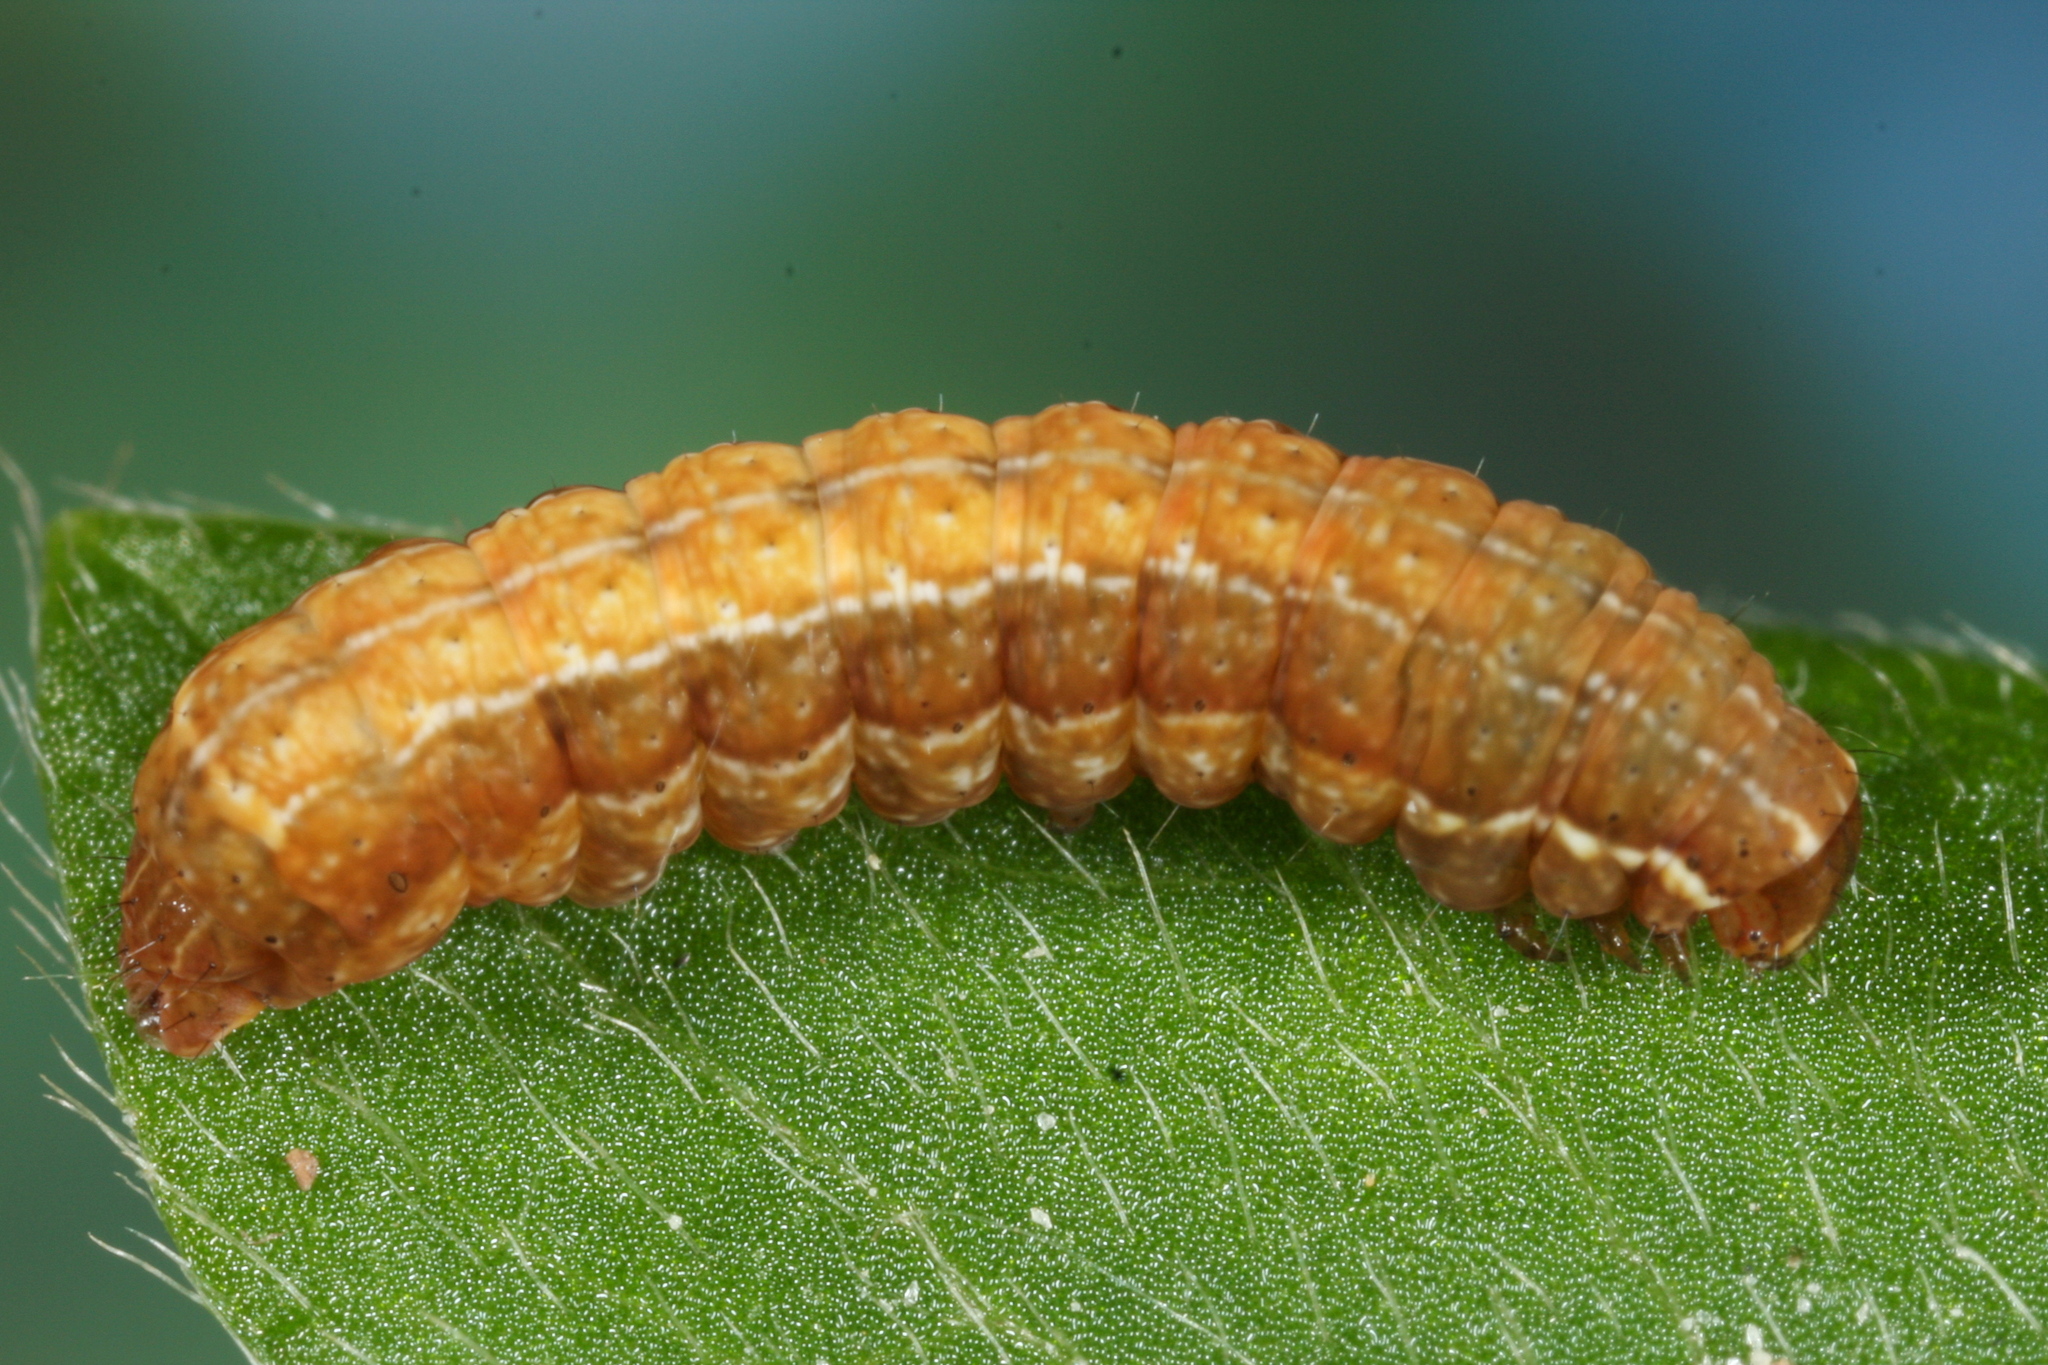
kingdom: Animalia
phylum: Arthropoda
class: Insecta
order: Lepidoptera
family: Noctuidae
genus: Diarsia
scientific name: Diarsia brunnea
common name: Purple clay
